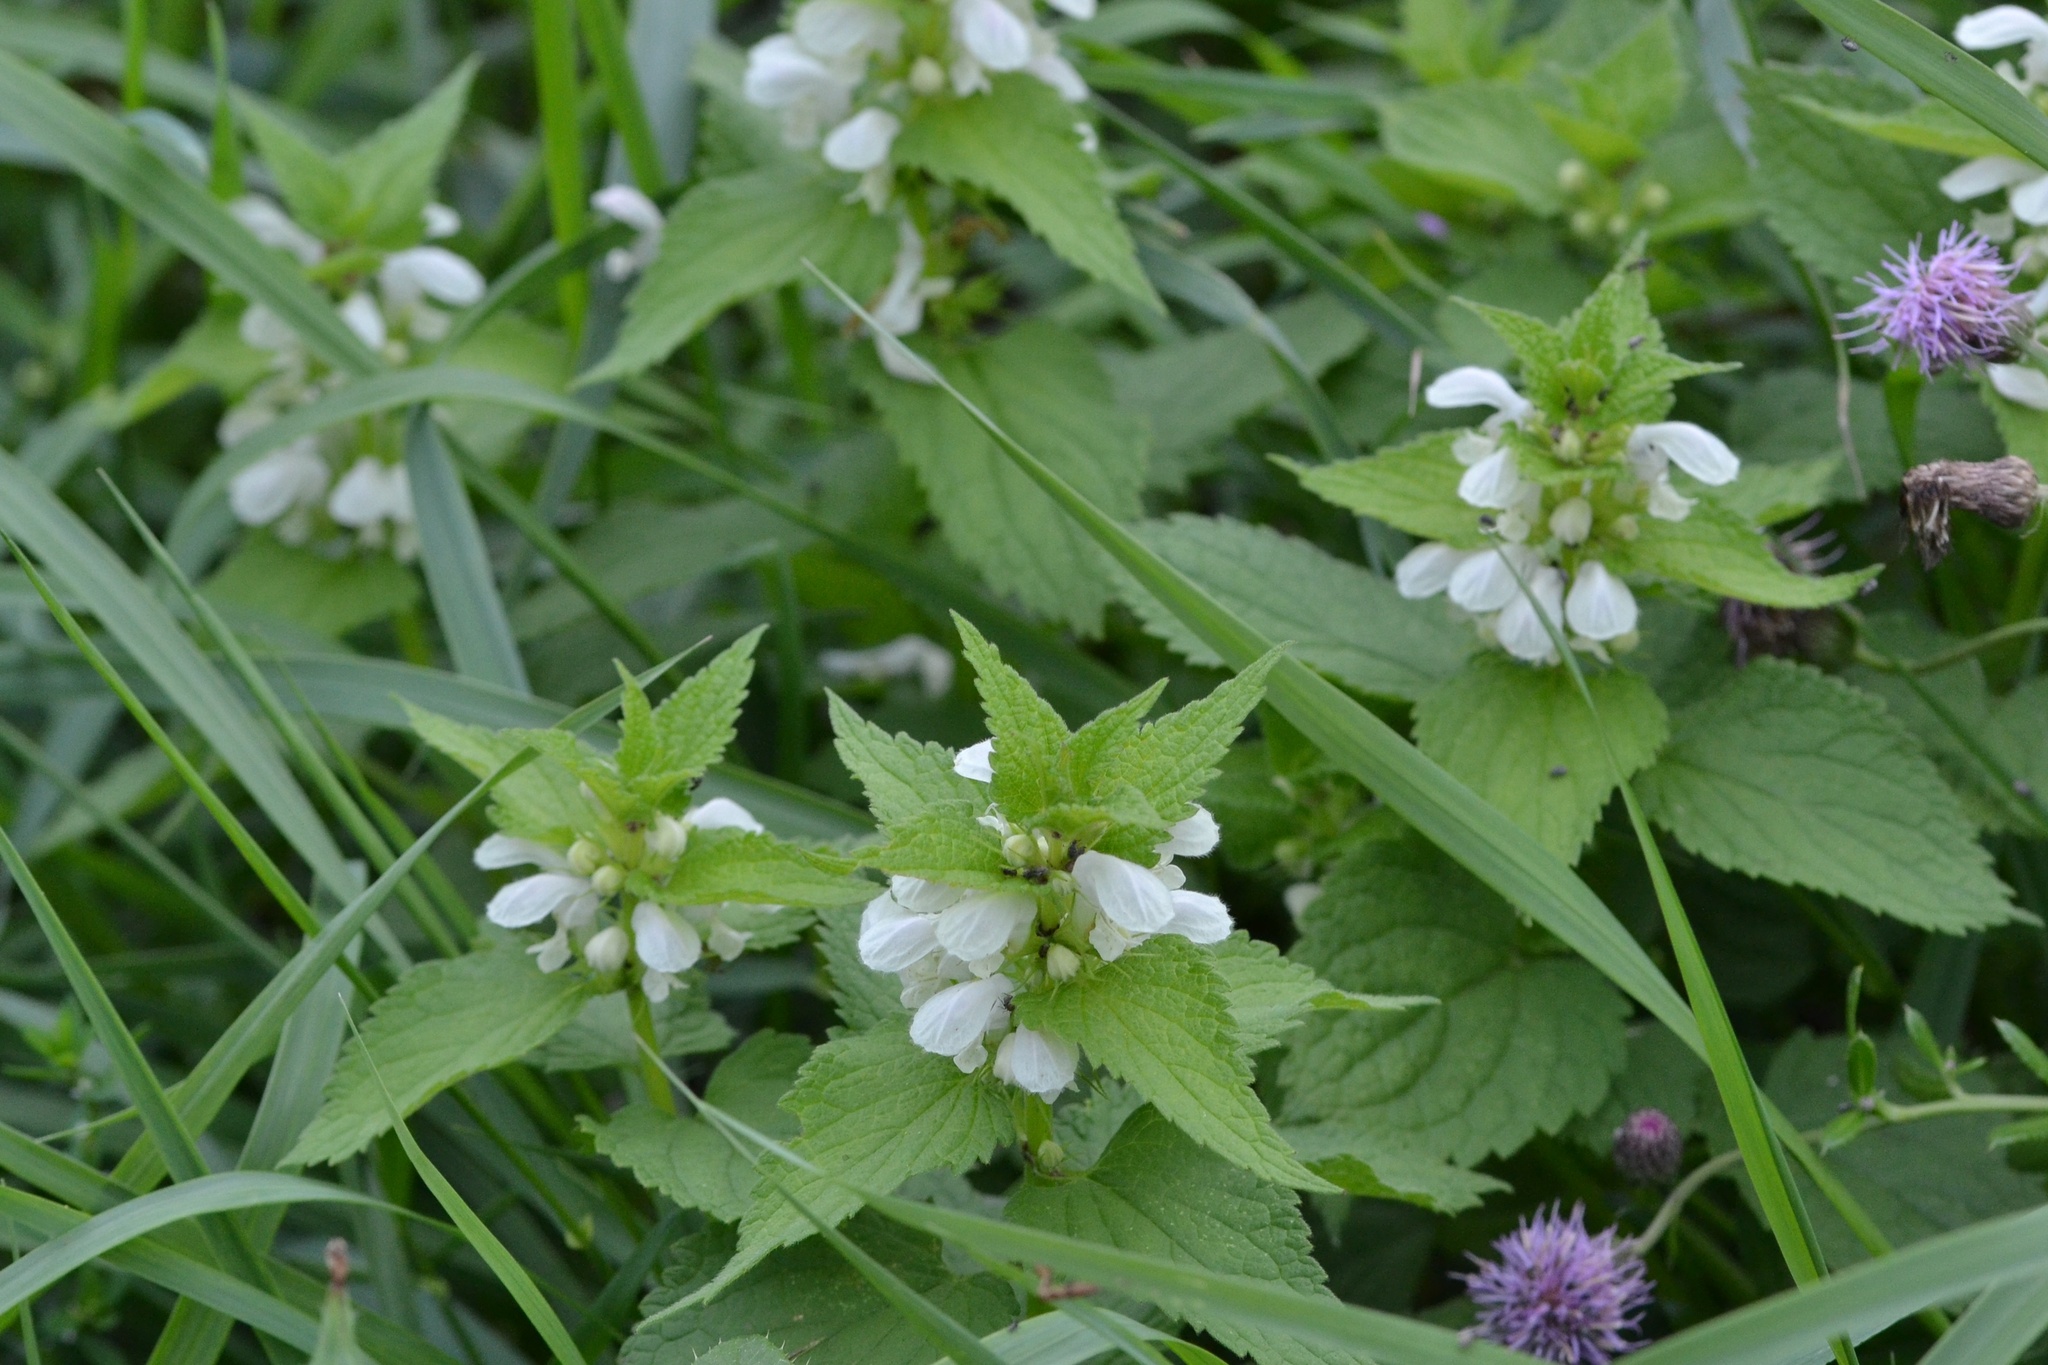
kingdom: Plantae
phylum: Tracheophyta
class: Magnoliopsida
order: Lamiales
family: Lamiaceae
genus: Lamium
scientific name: Lamium album
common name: White dead-nettle
